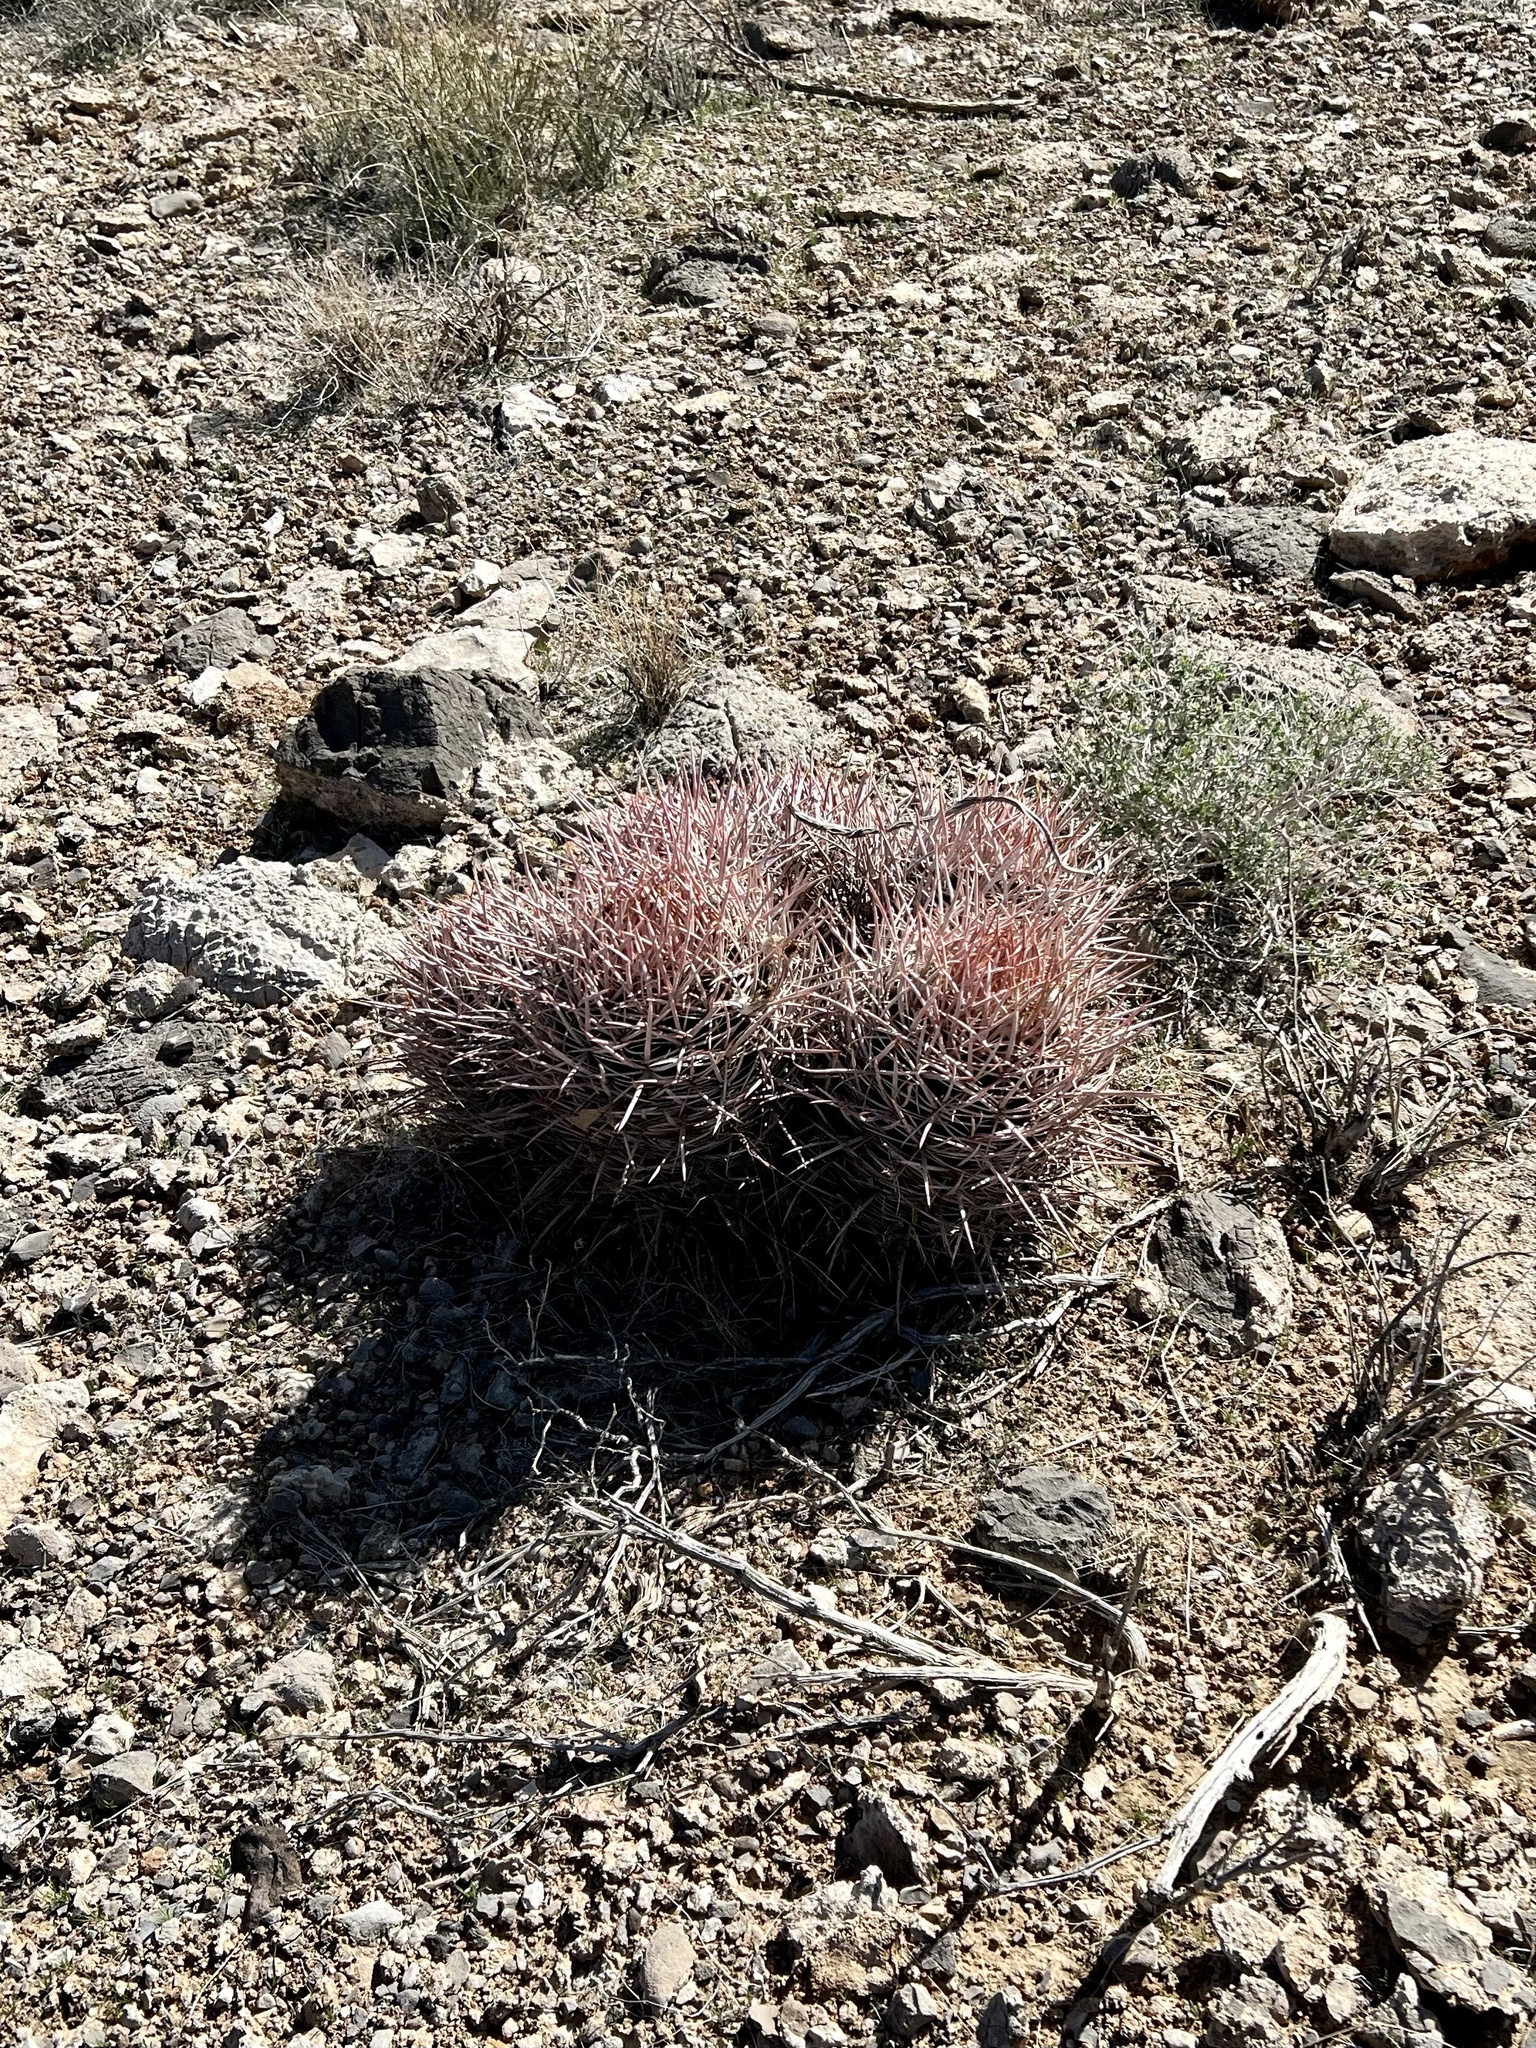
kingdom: Plantae
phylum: Tracheophyta
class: Magnoliopsida
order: Caryophyllales
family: Cactaceae
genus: Echinocactus
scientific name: Echinocactus polycephalus
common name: Cottontop cactus
